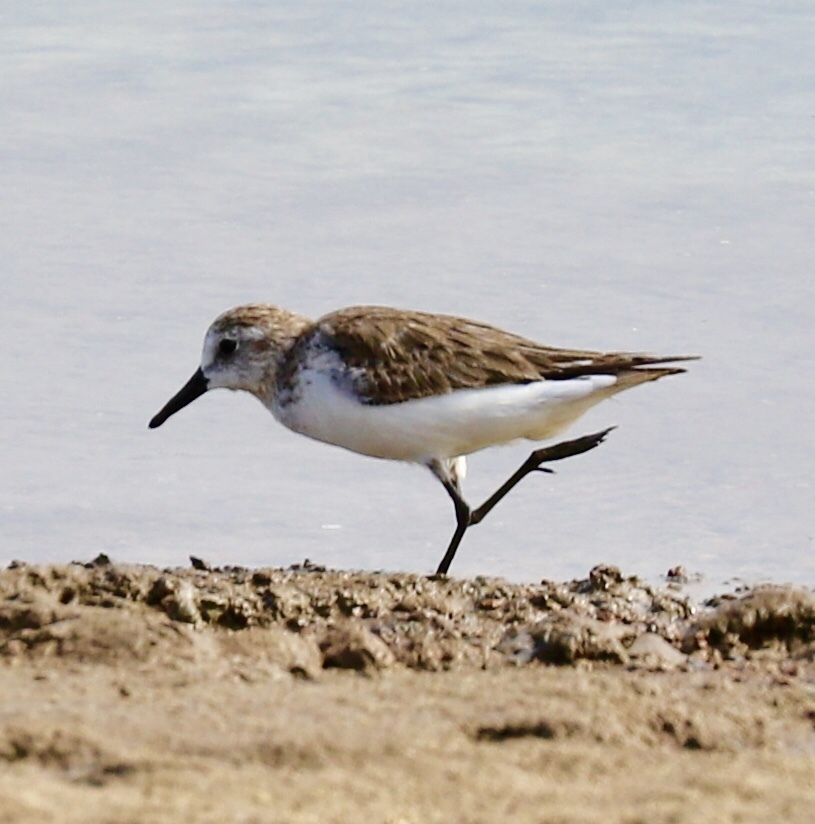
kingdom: Animalia
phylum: Chordata
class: Aves
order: Charadriiformes
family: Scolopacidae
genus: Calidris
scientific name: Calidris pusilla
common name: Semipalmated sandpiper
